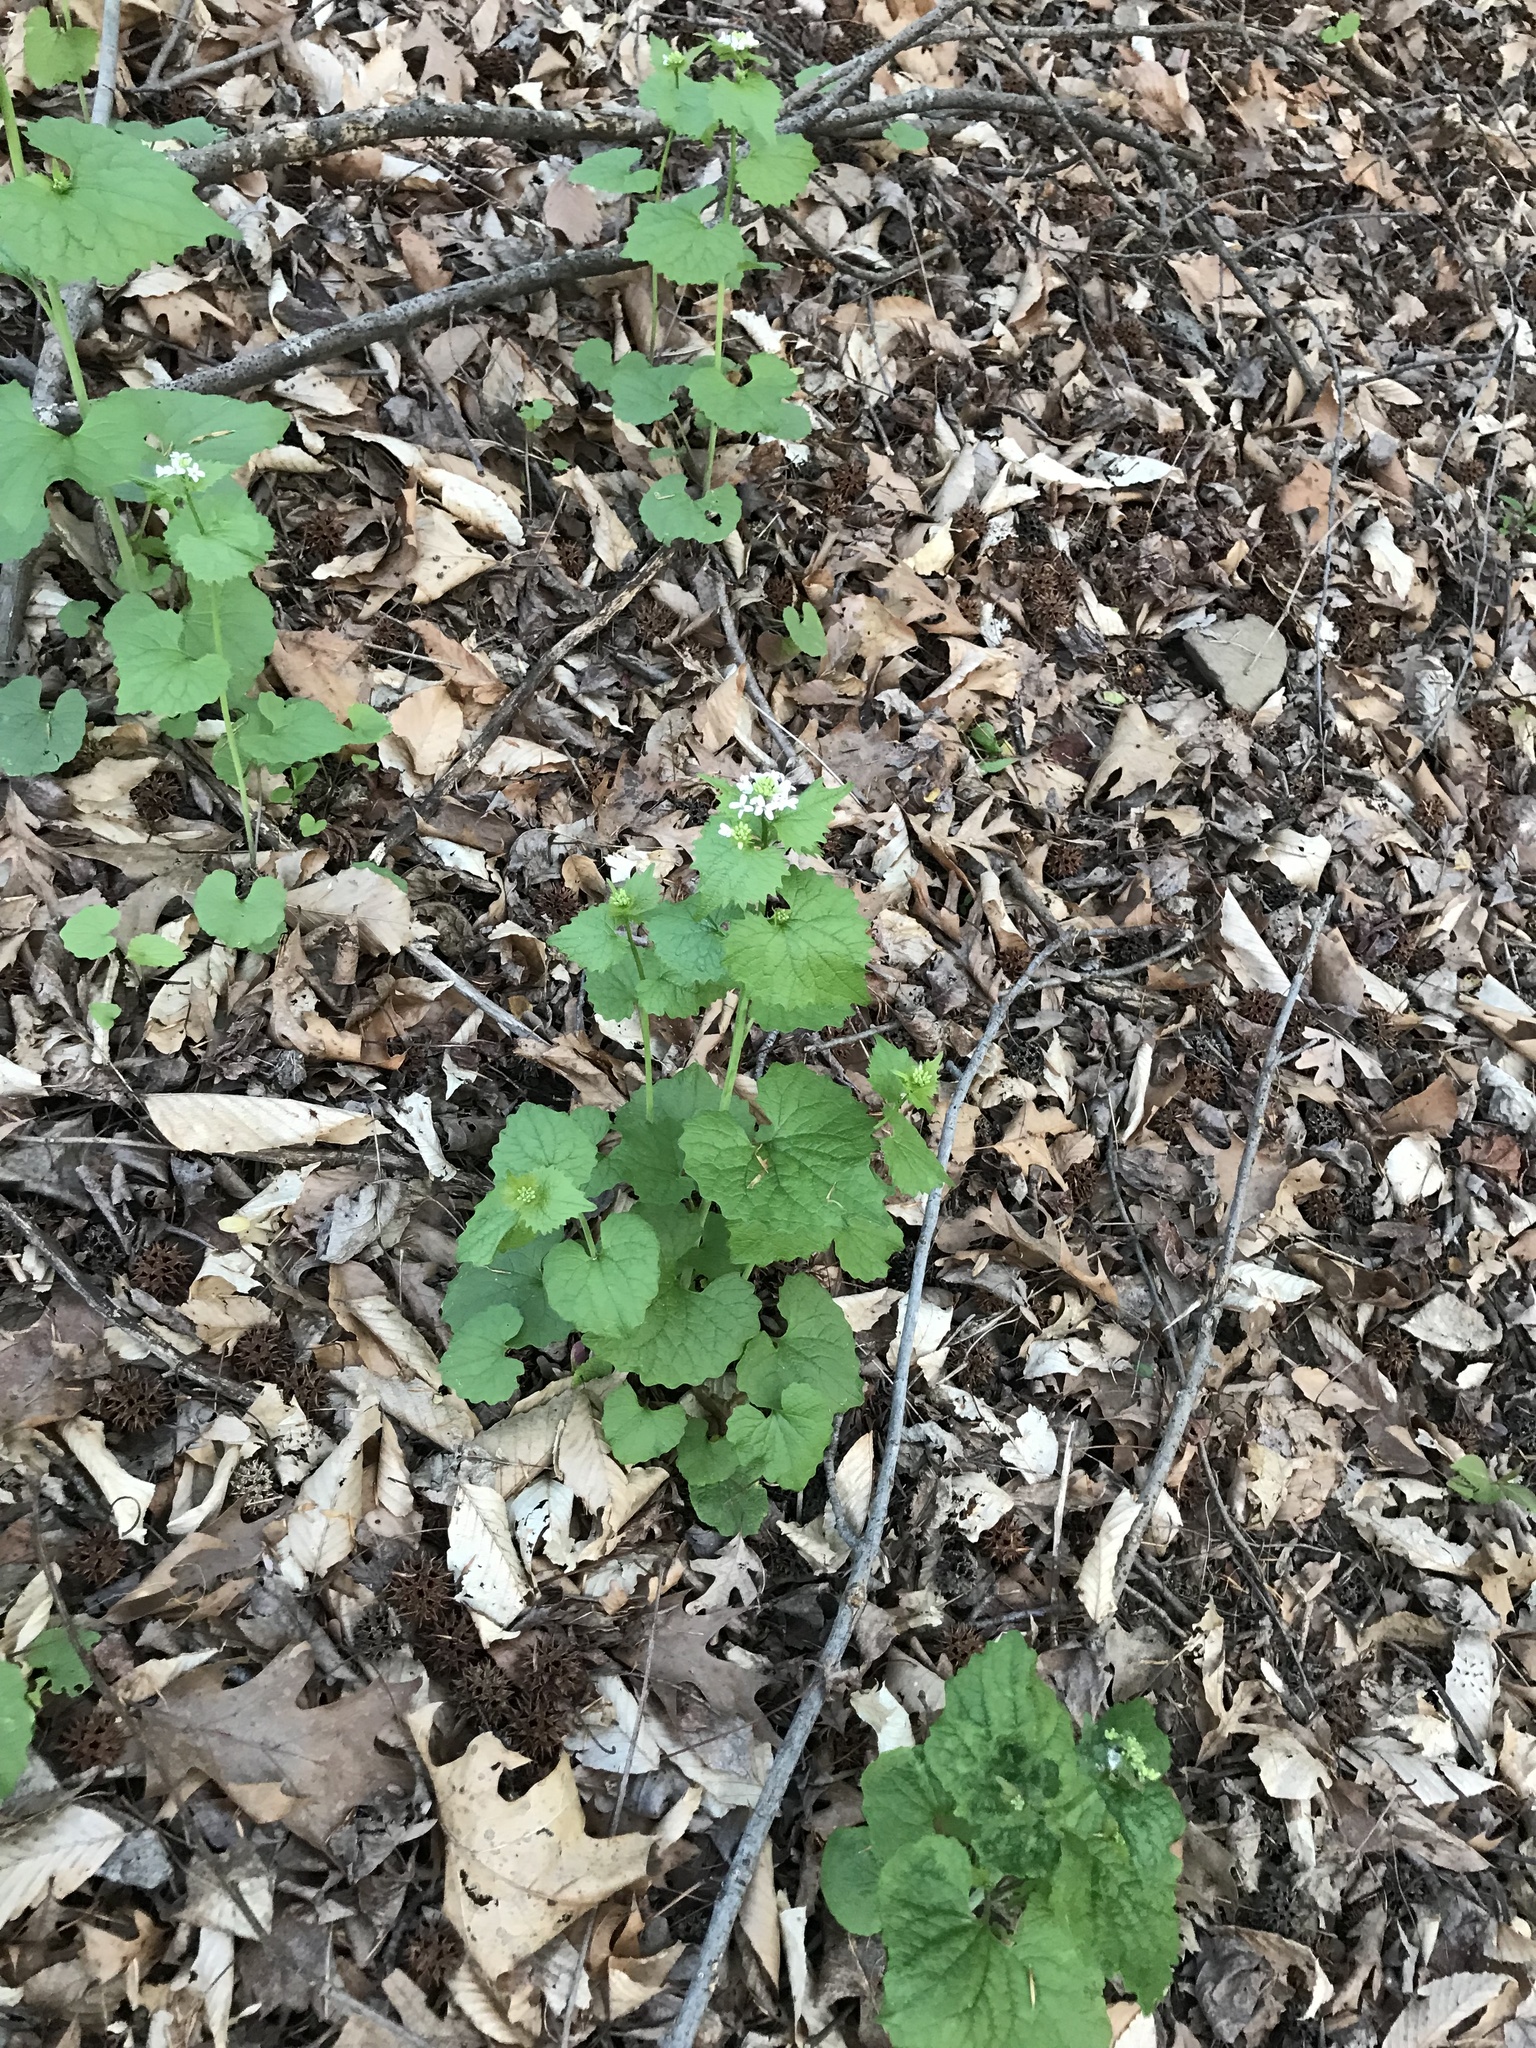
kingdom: Plantae
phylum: Tracheophyta
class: Magnoliopsida
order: Brassicales
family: Brassicaceae
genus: Alliaria
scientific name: Alliaria petiolata
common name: Garlic mustard
